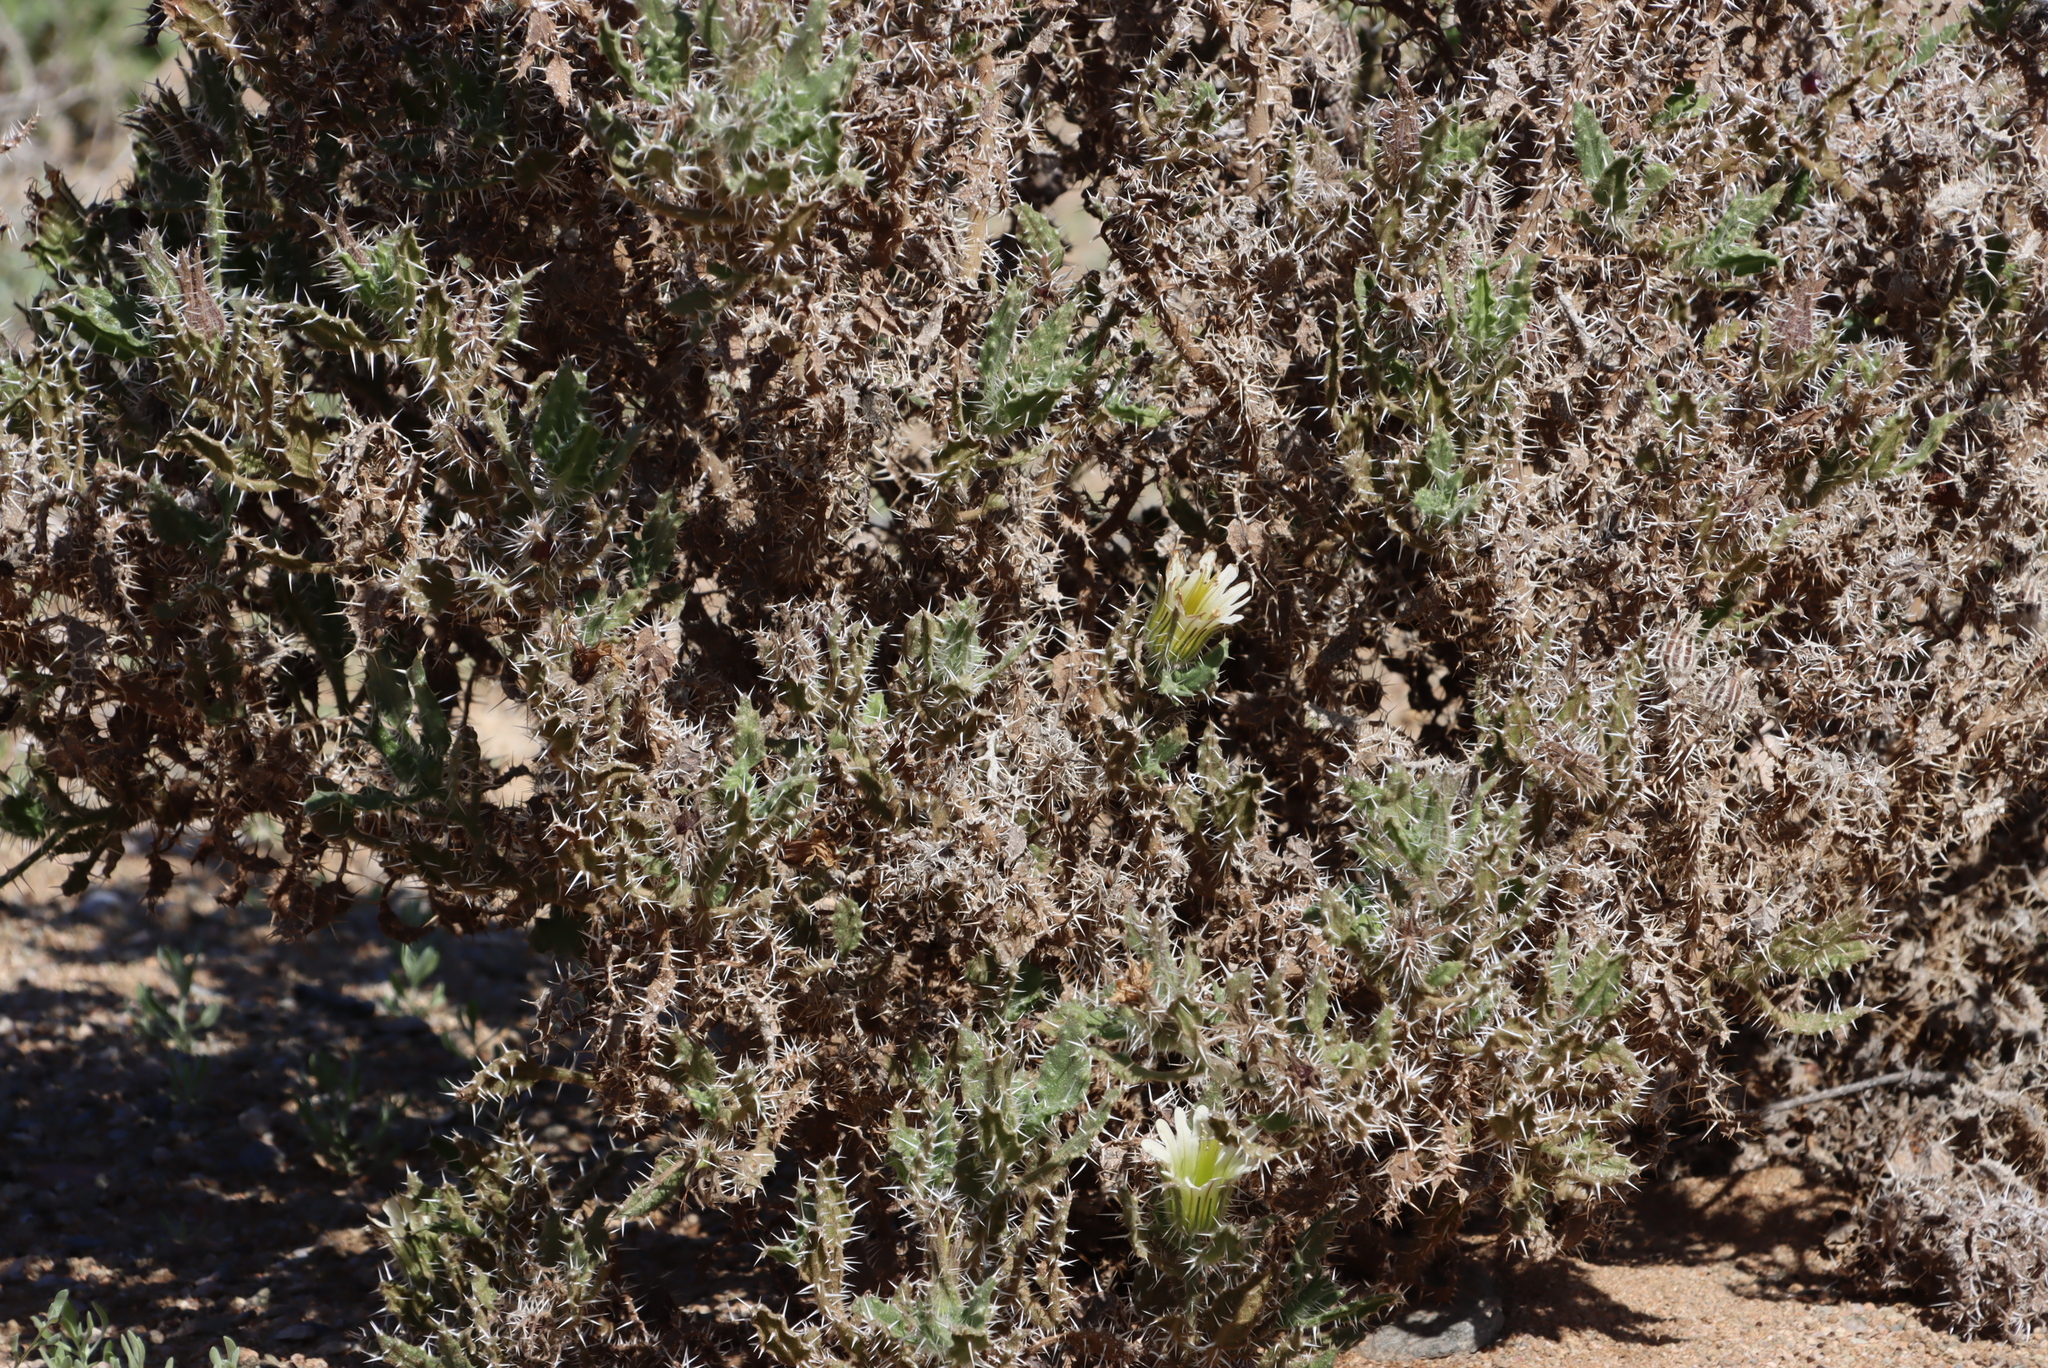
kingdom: Plantae
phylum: Tracheophyta
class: Magnoliopsida
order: Boraginales
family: Boraginaceae
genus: Codon
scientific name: Codon royenii
